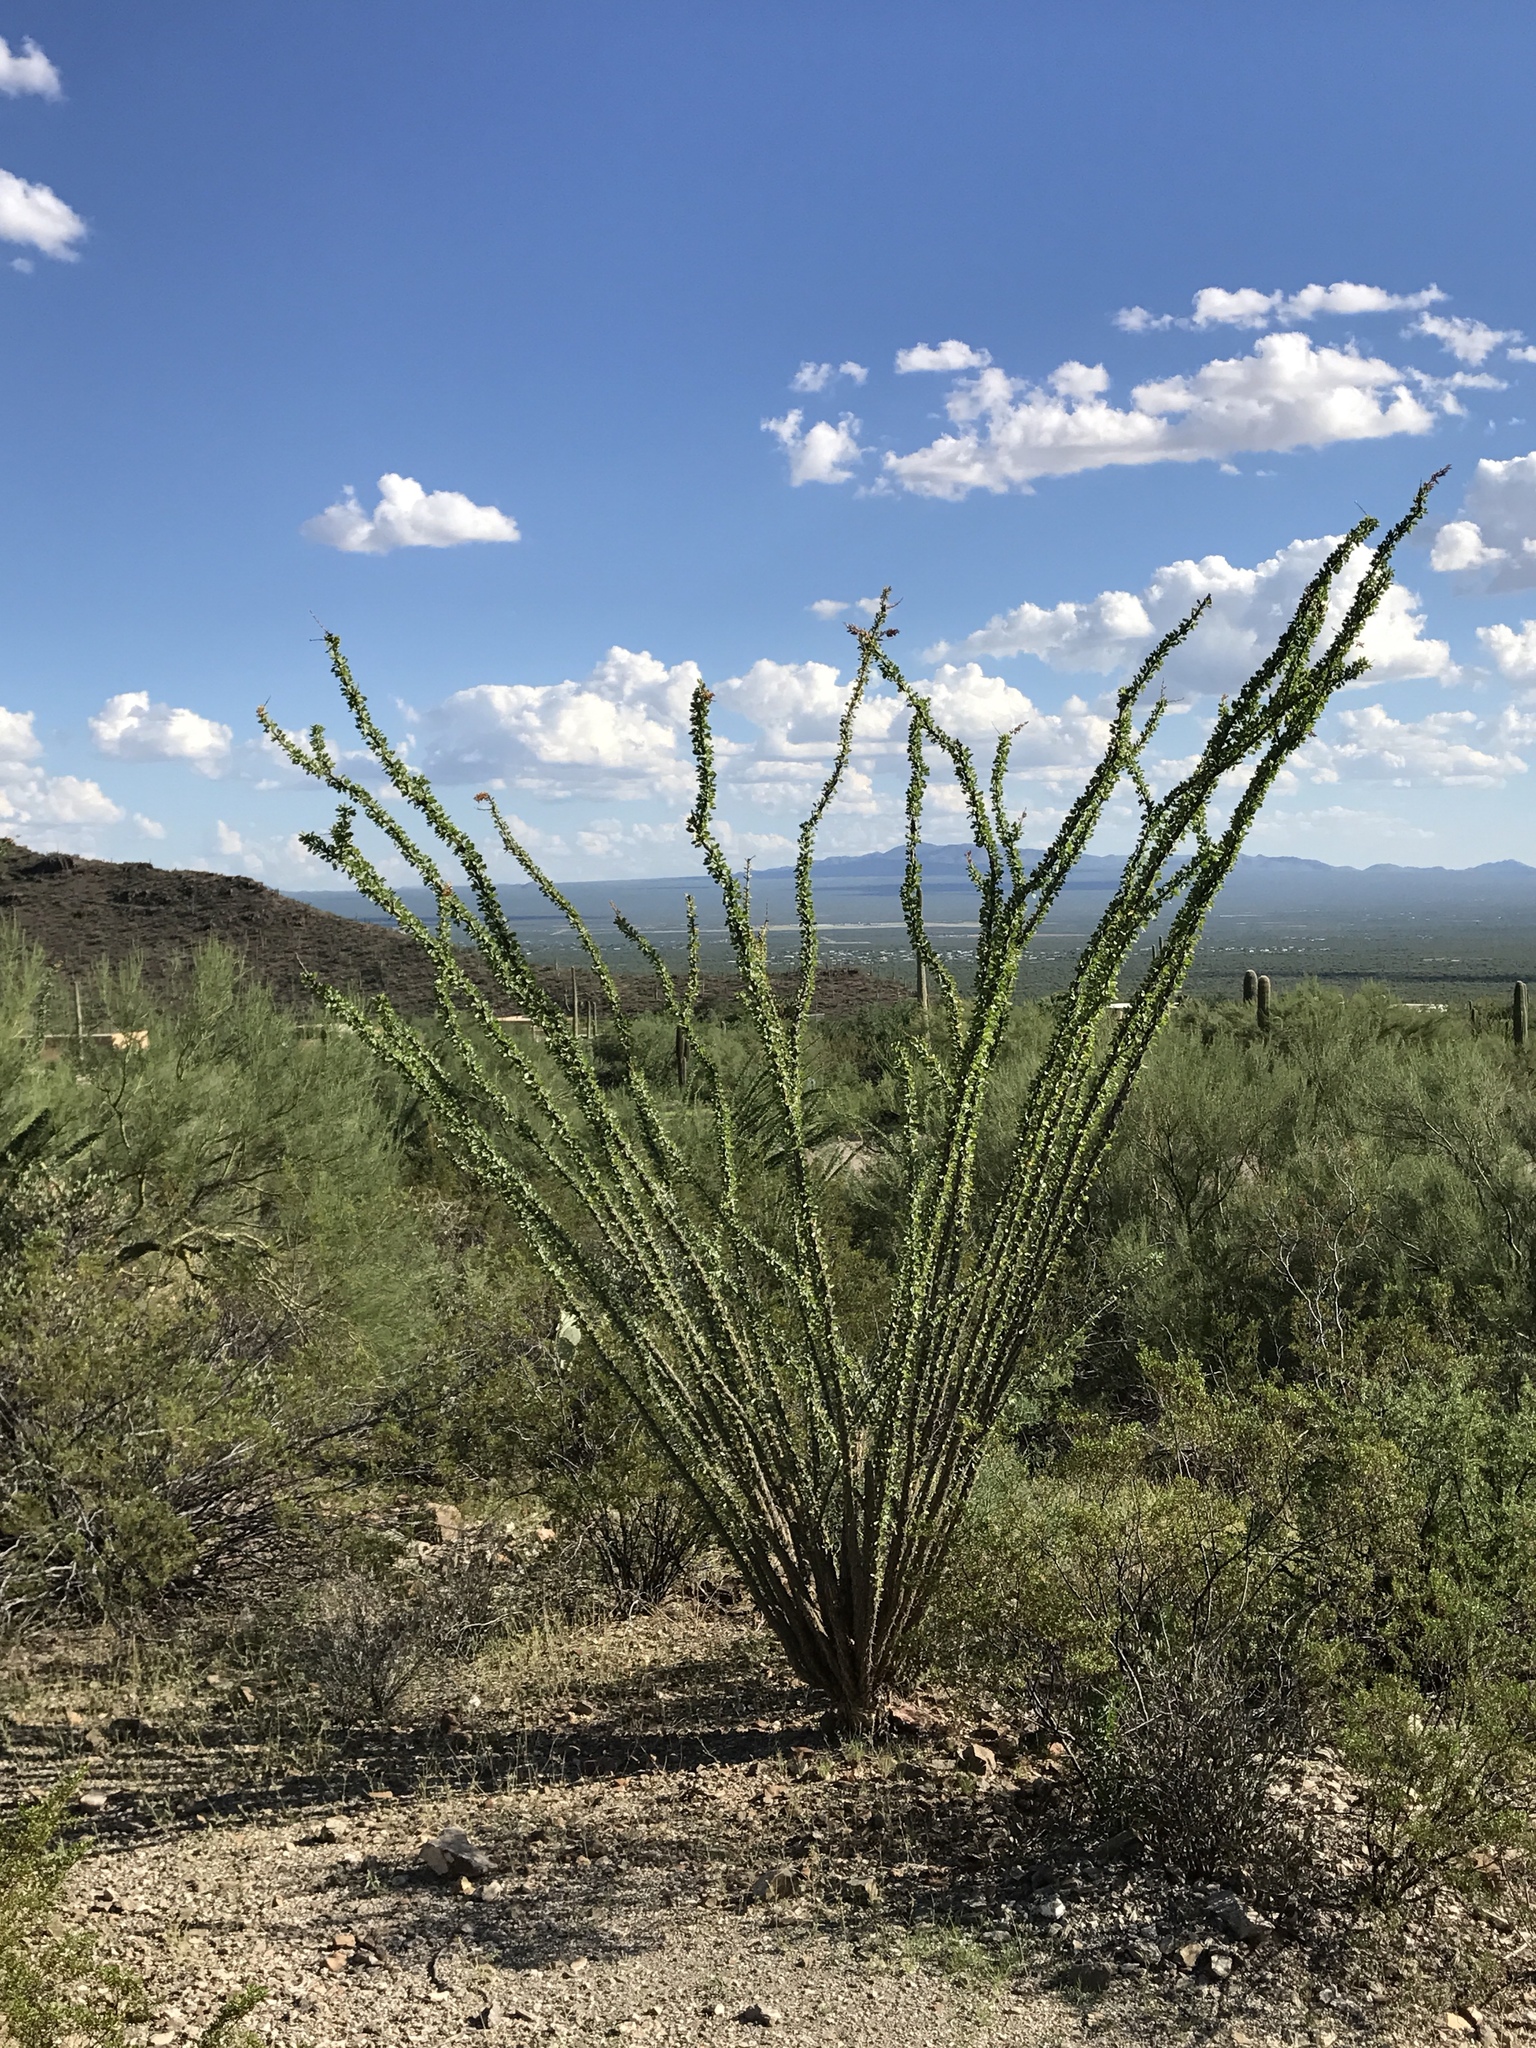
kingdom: Plantae
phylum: Tracheophyta
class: Magnoliopsida
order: Ericales
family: Fouquieriaceae
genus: Fouquieria
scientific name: Fouquieria splendens
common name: Vine-cactus
